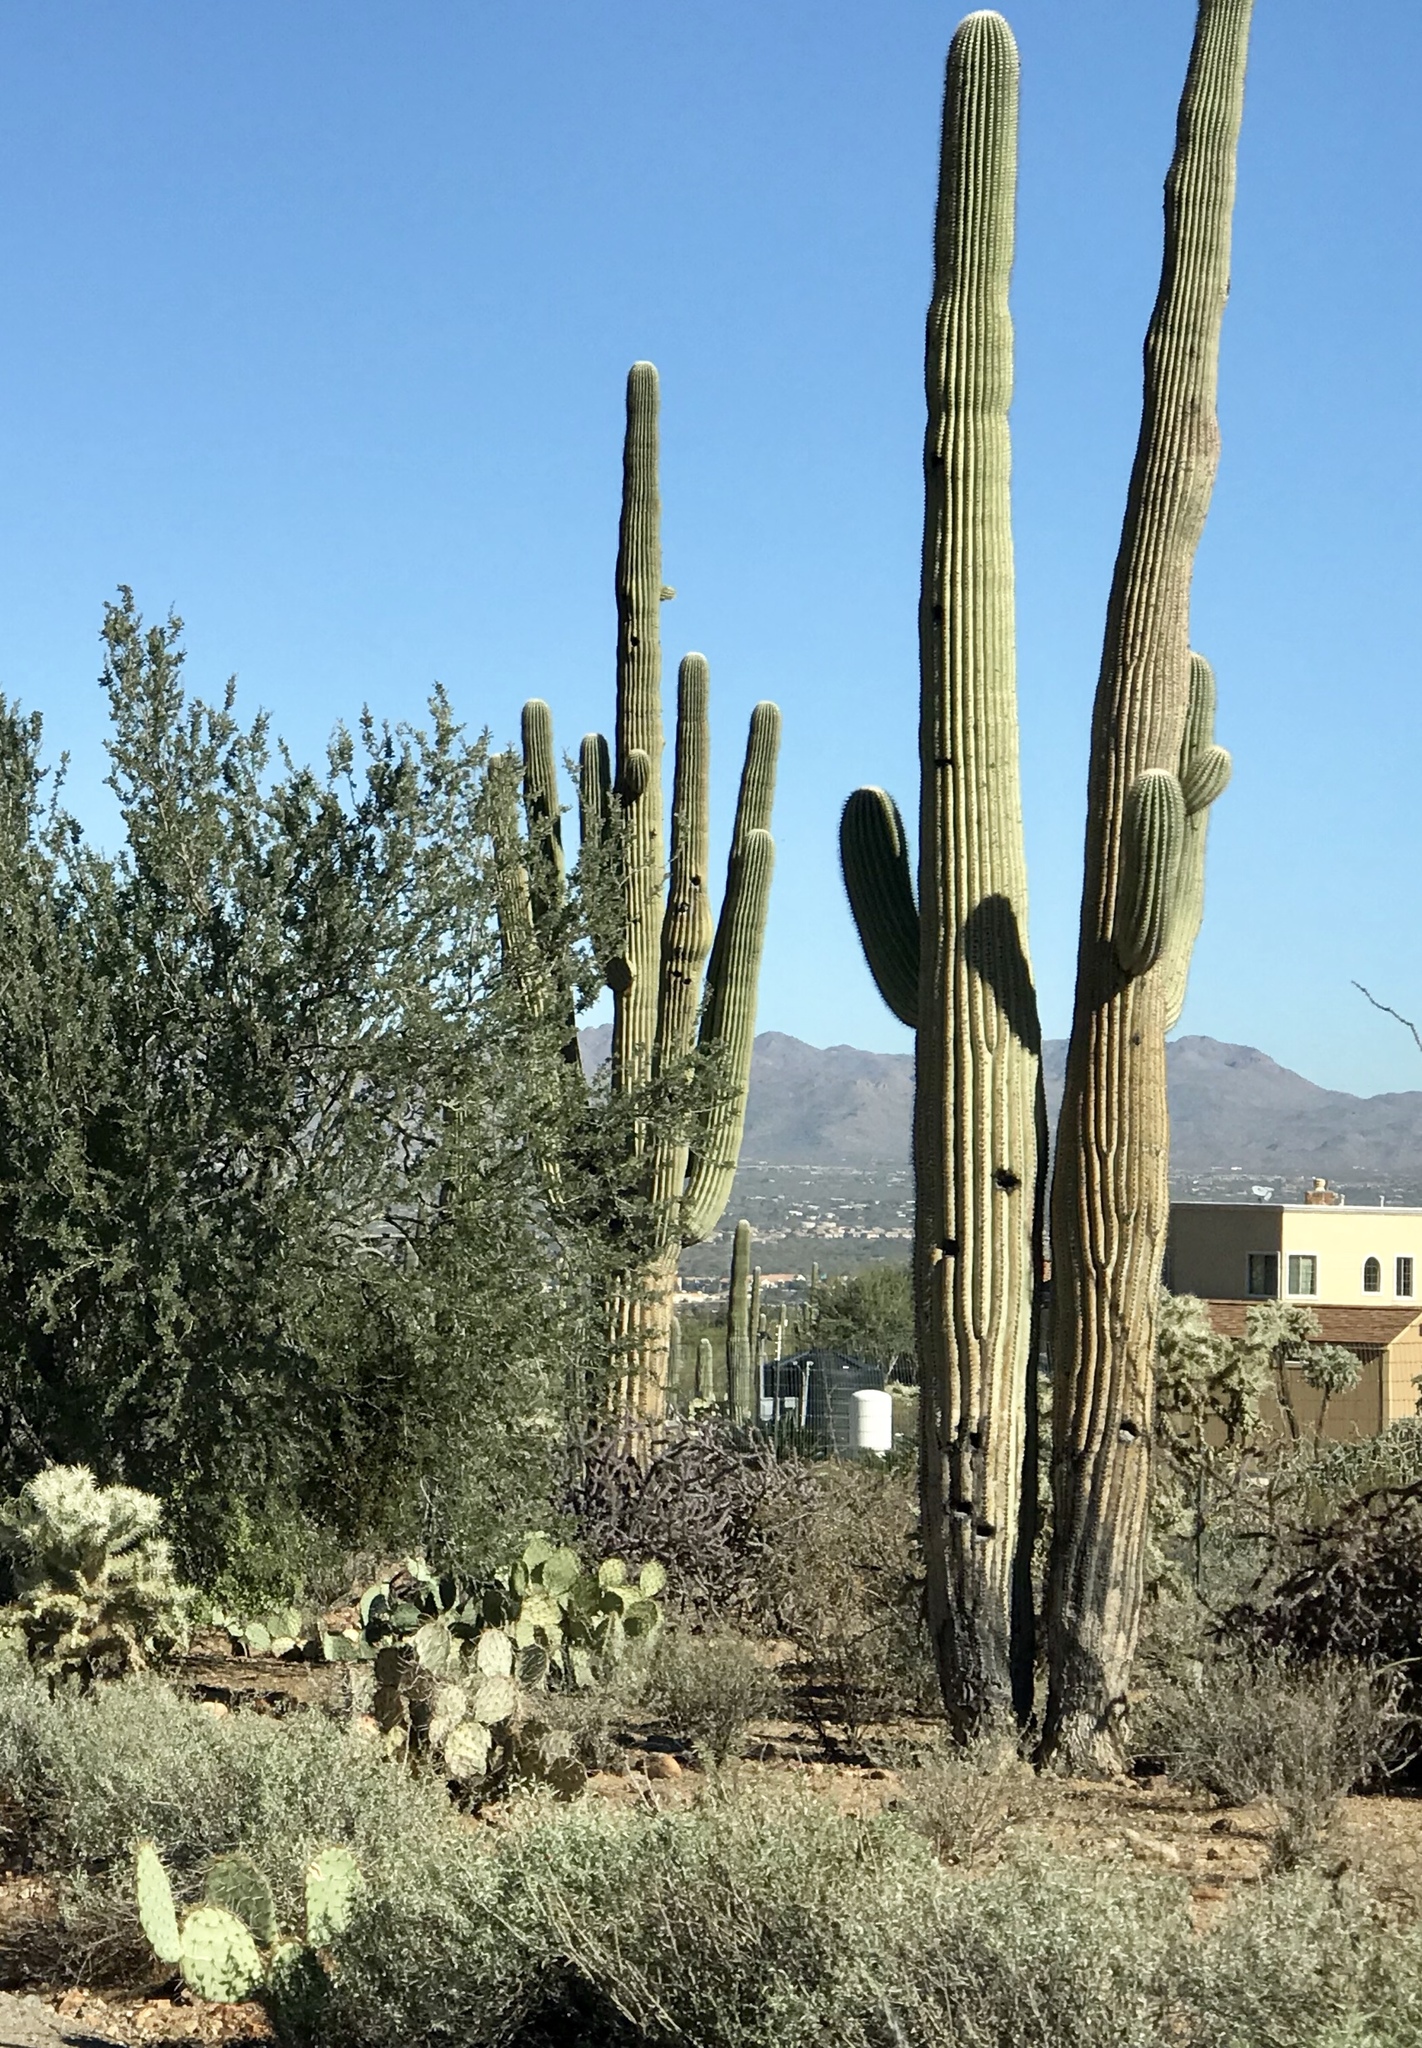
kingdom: Plantae
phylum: Tracheophyta
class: Magnoliopsida
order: Caryophyllales
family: Cactaceae
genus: Carnegiea
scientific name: Carnegiea gigantea
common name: Saguaro
